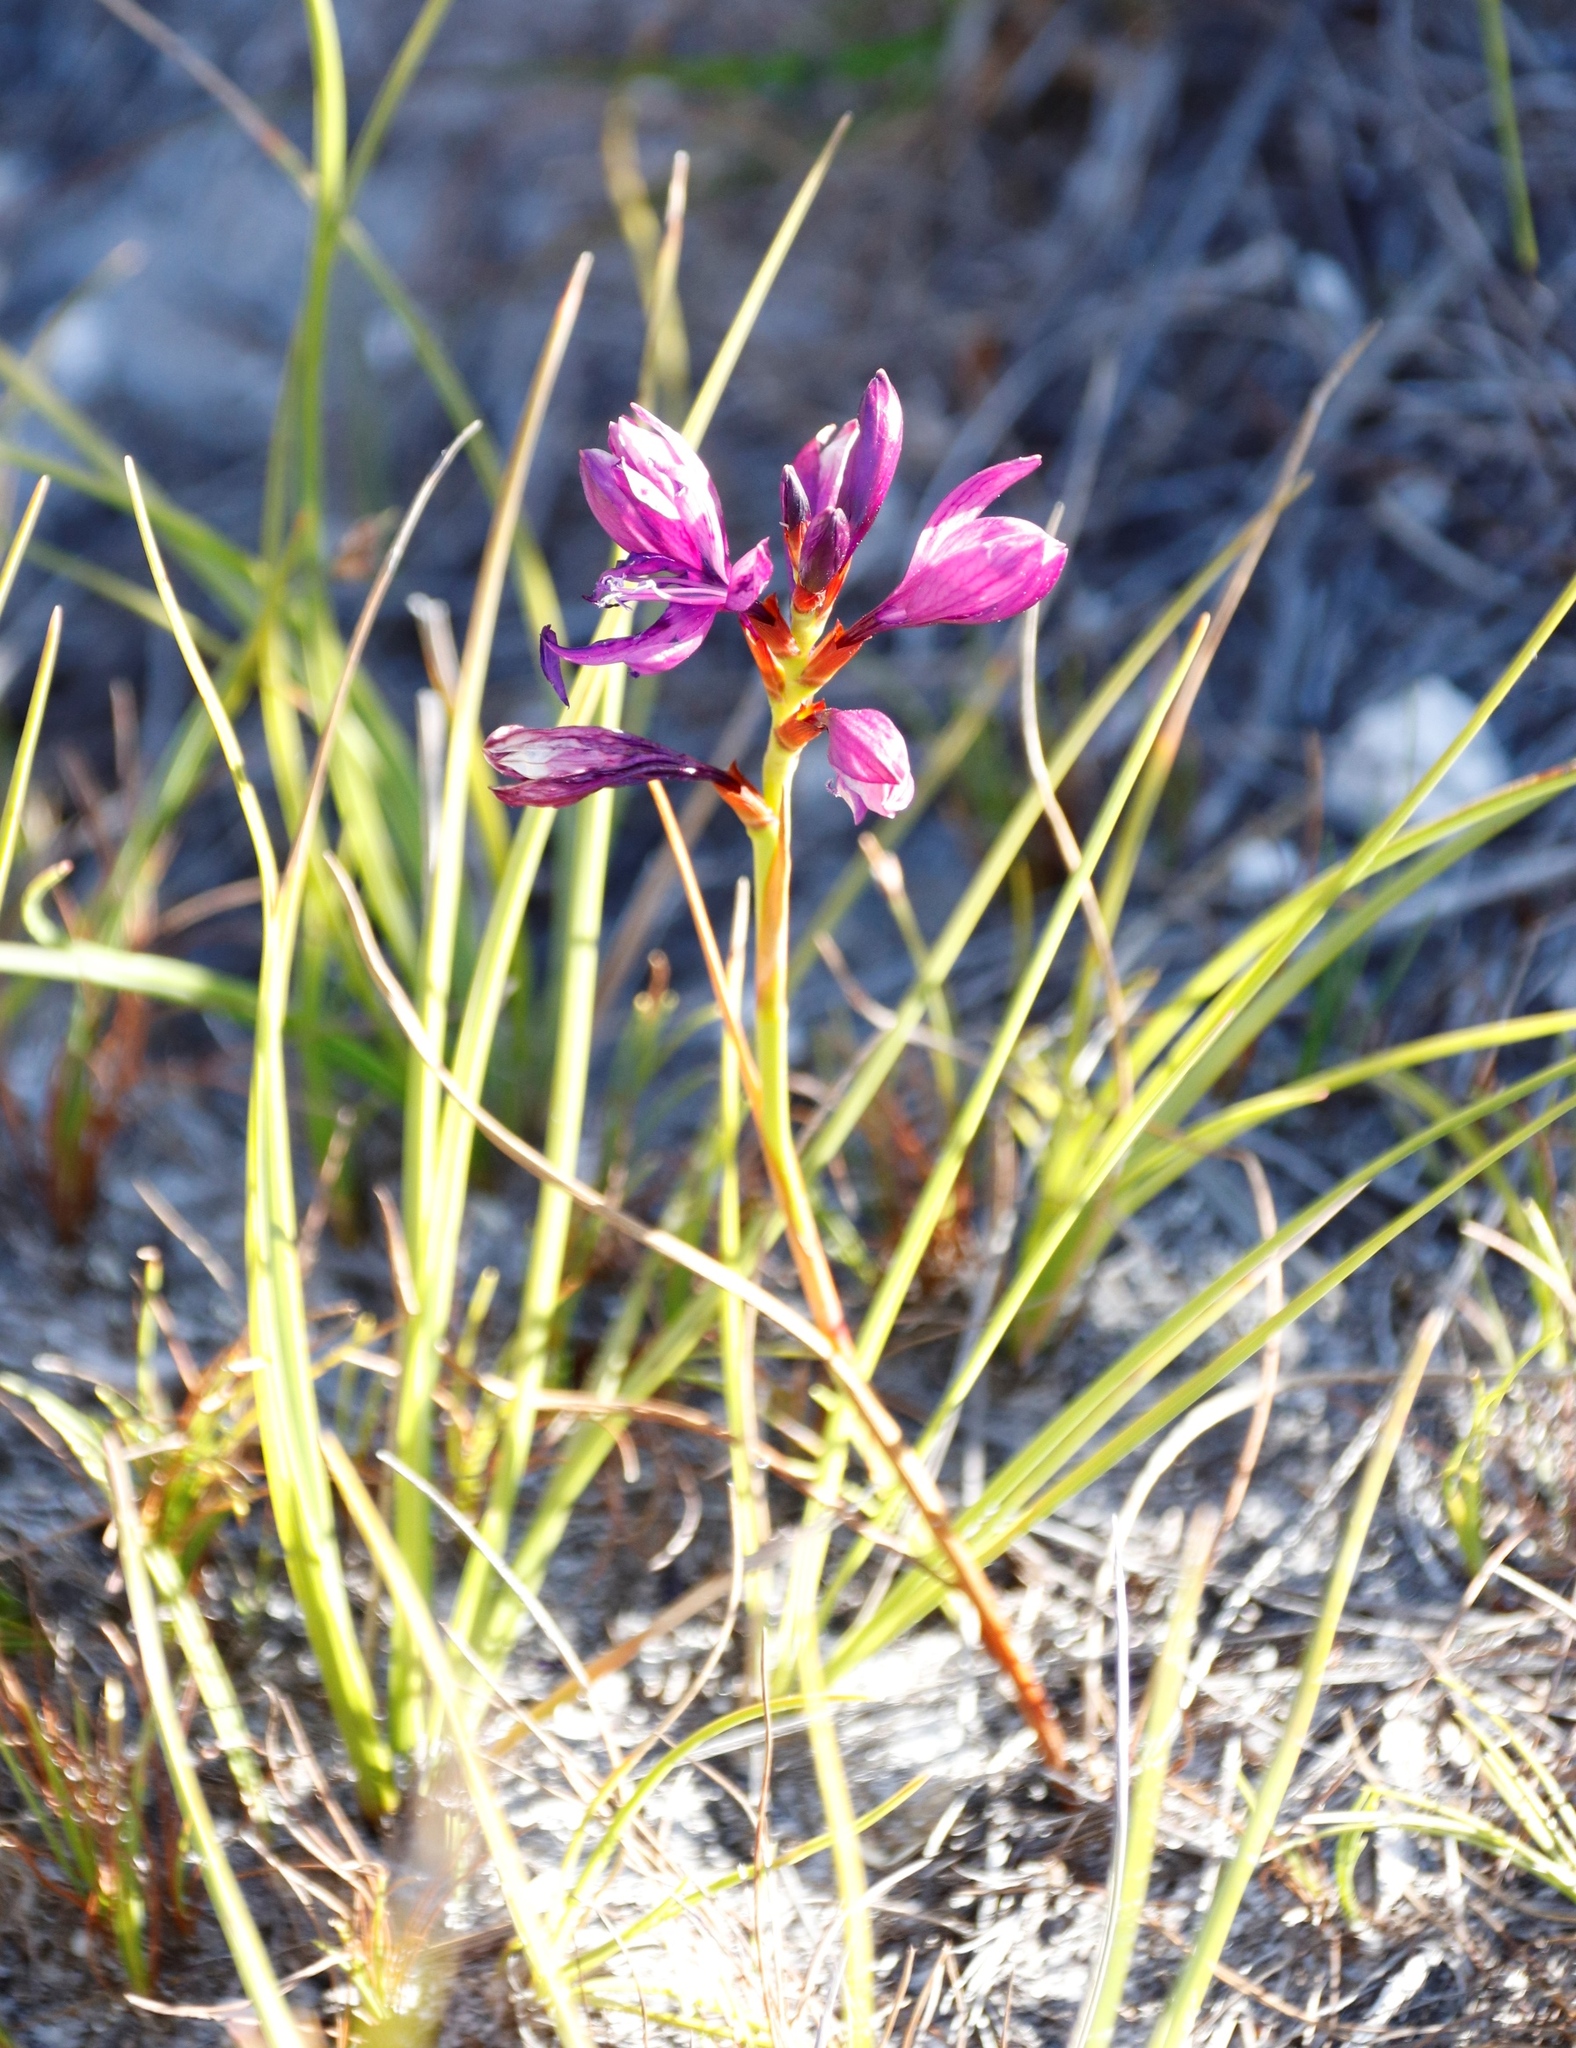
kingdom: Plantae
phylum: Tracheophyta
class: Liliopsida
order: Asparagales
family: Iridaceae
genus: Thereianthus
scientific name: Thereianthus bracteolatus
